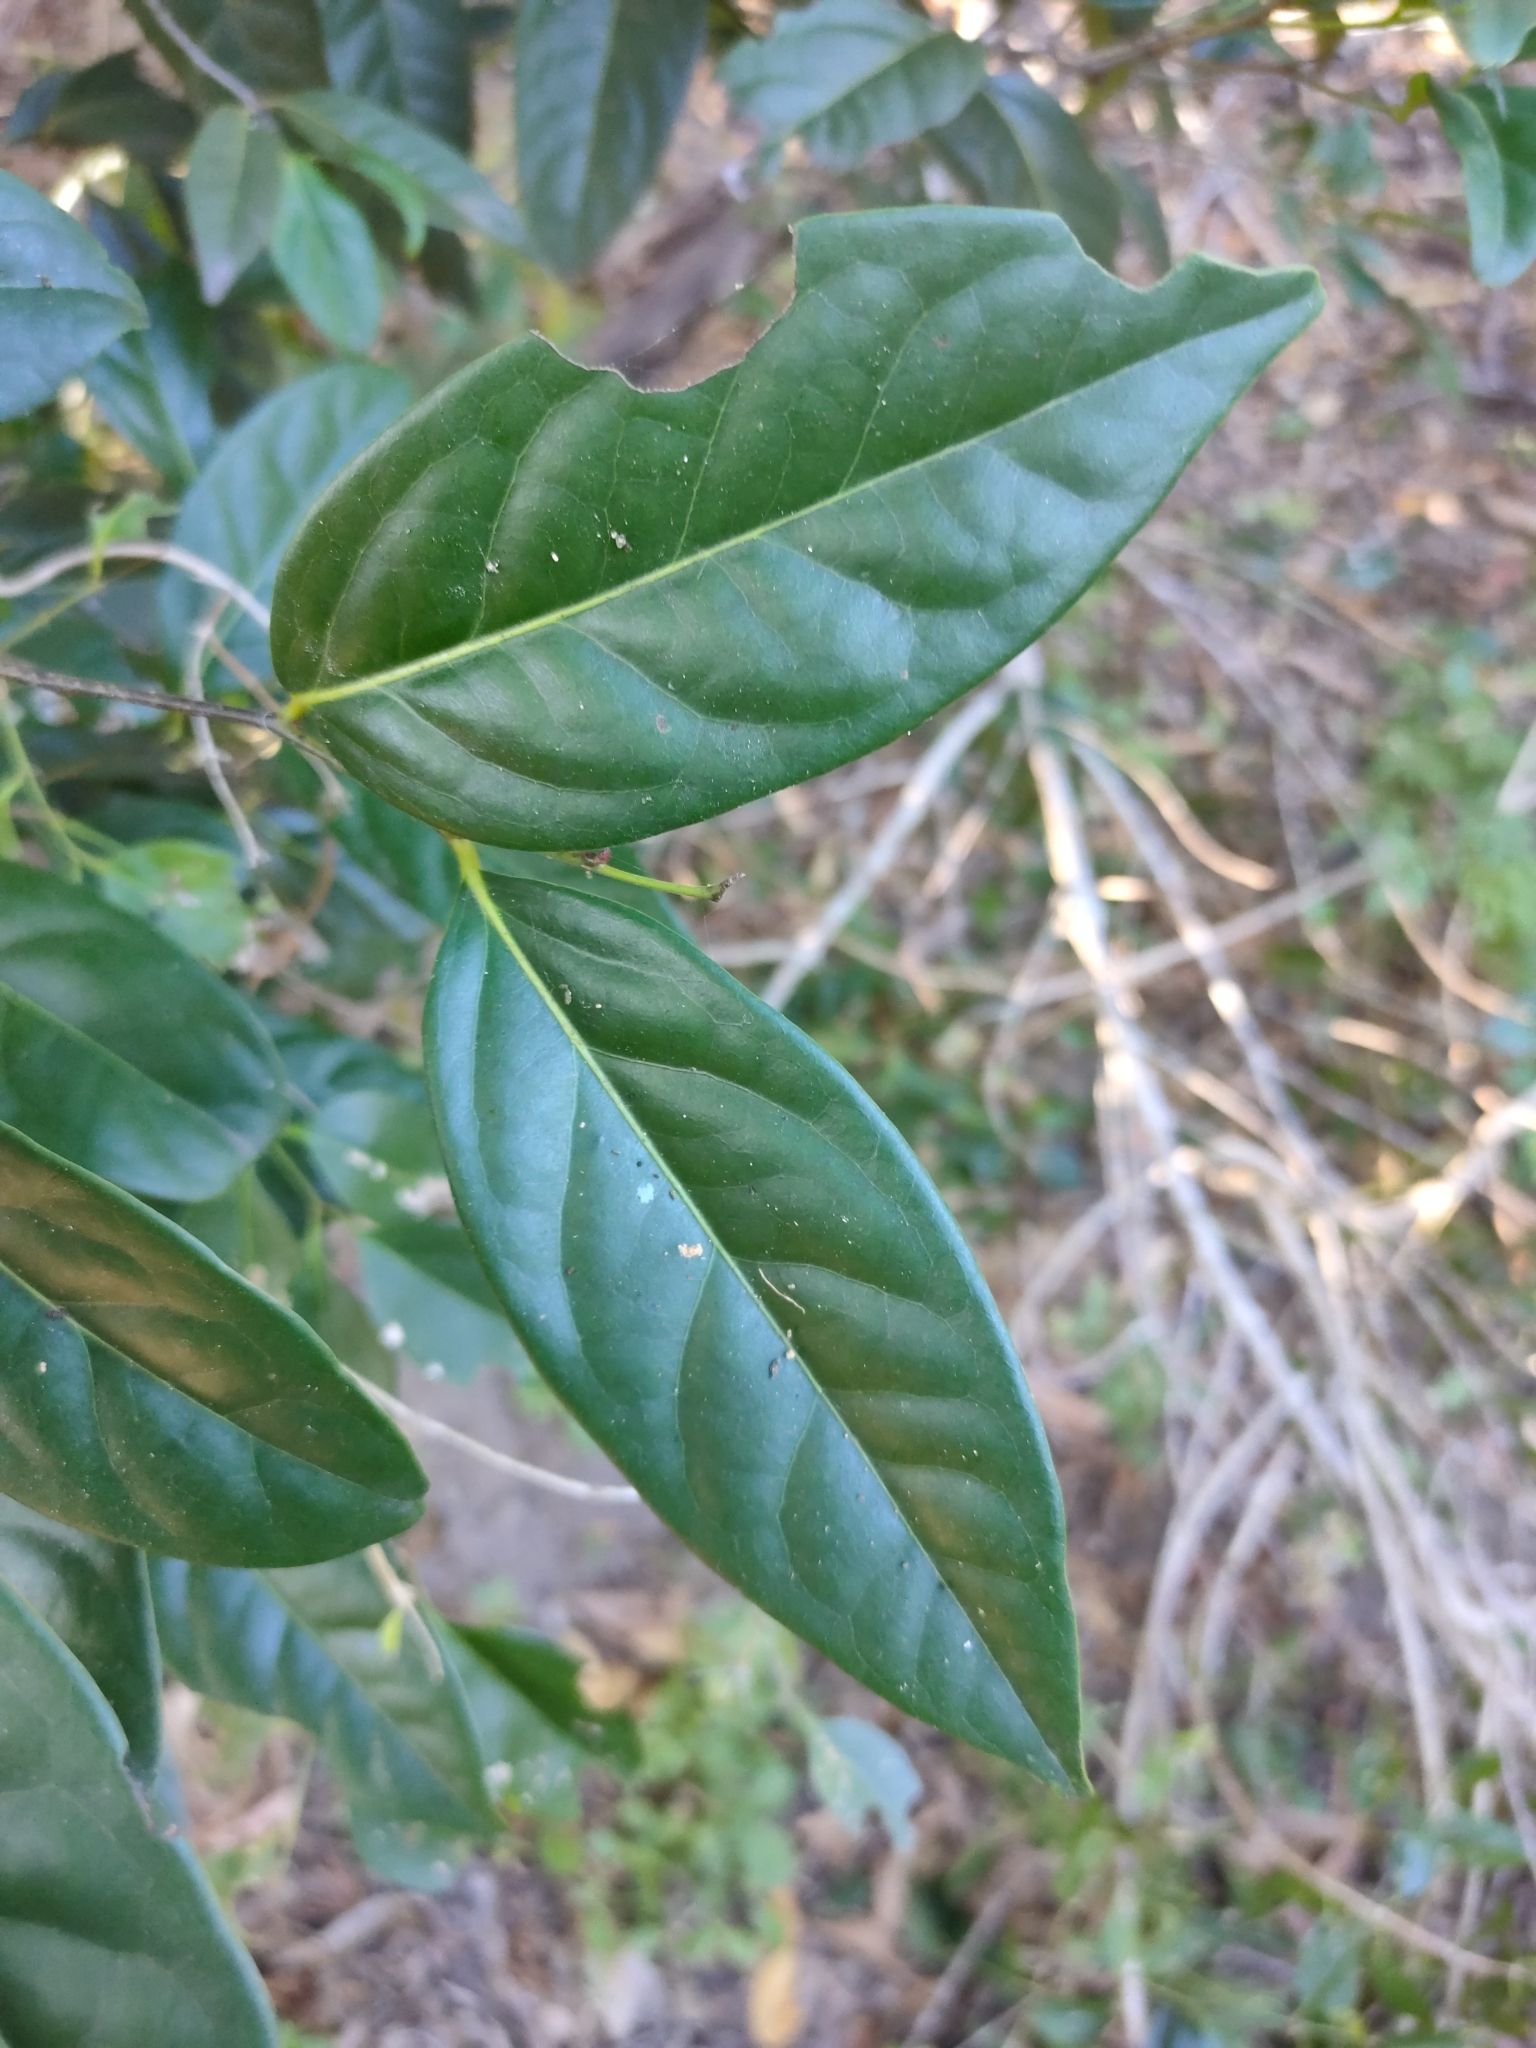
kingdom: Plantae
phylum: Tracheophyta
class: Magnoliopsida
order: Ericales
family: Ebenaceae
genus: Diospyros
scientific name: Diospyros fasciculosa
